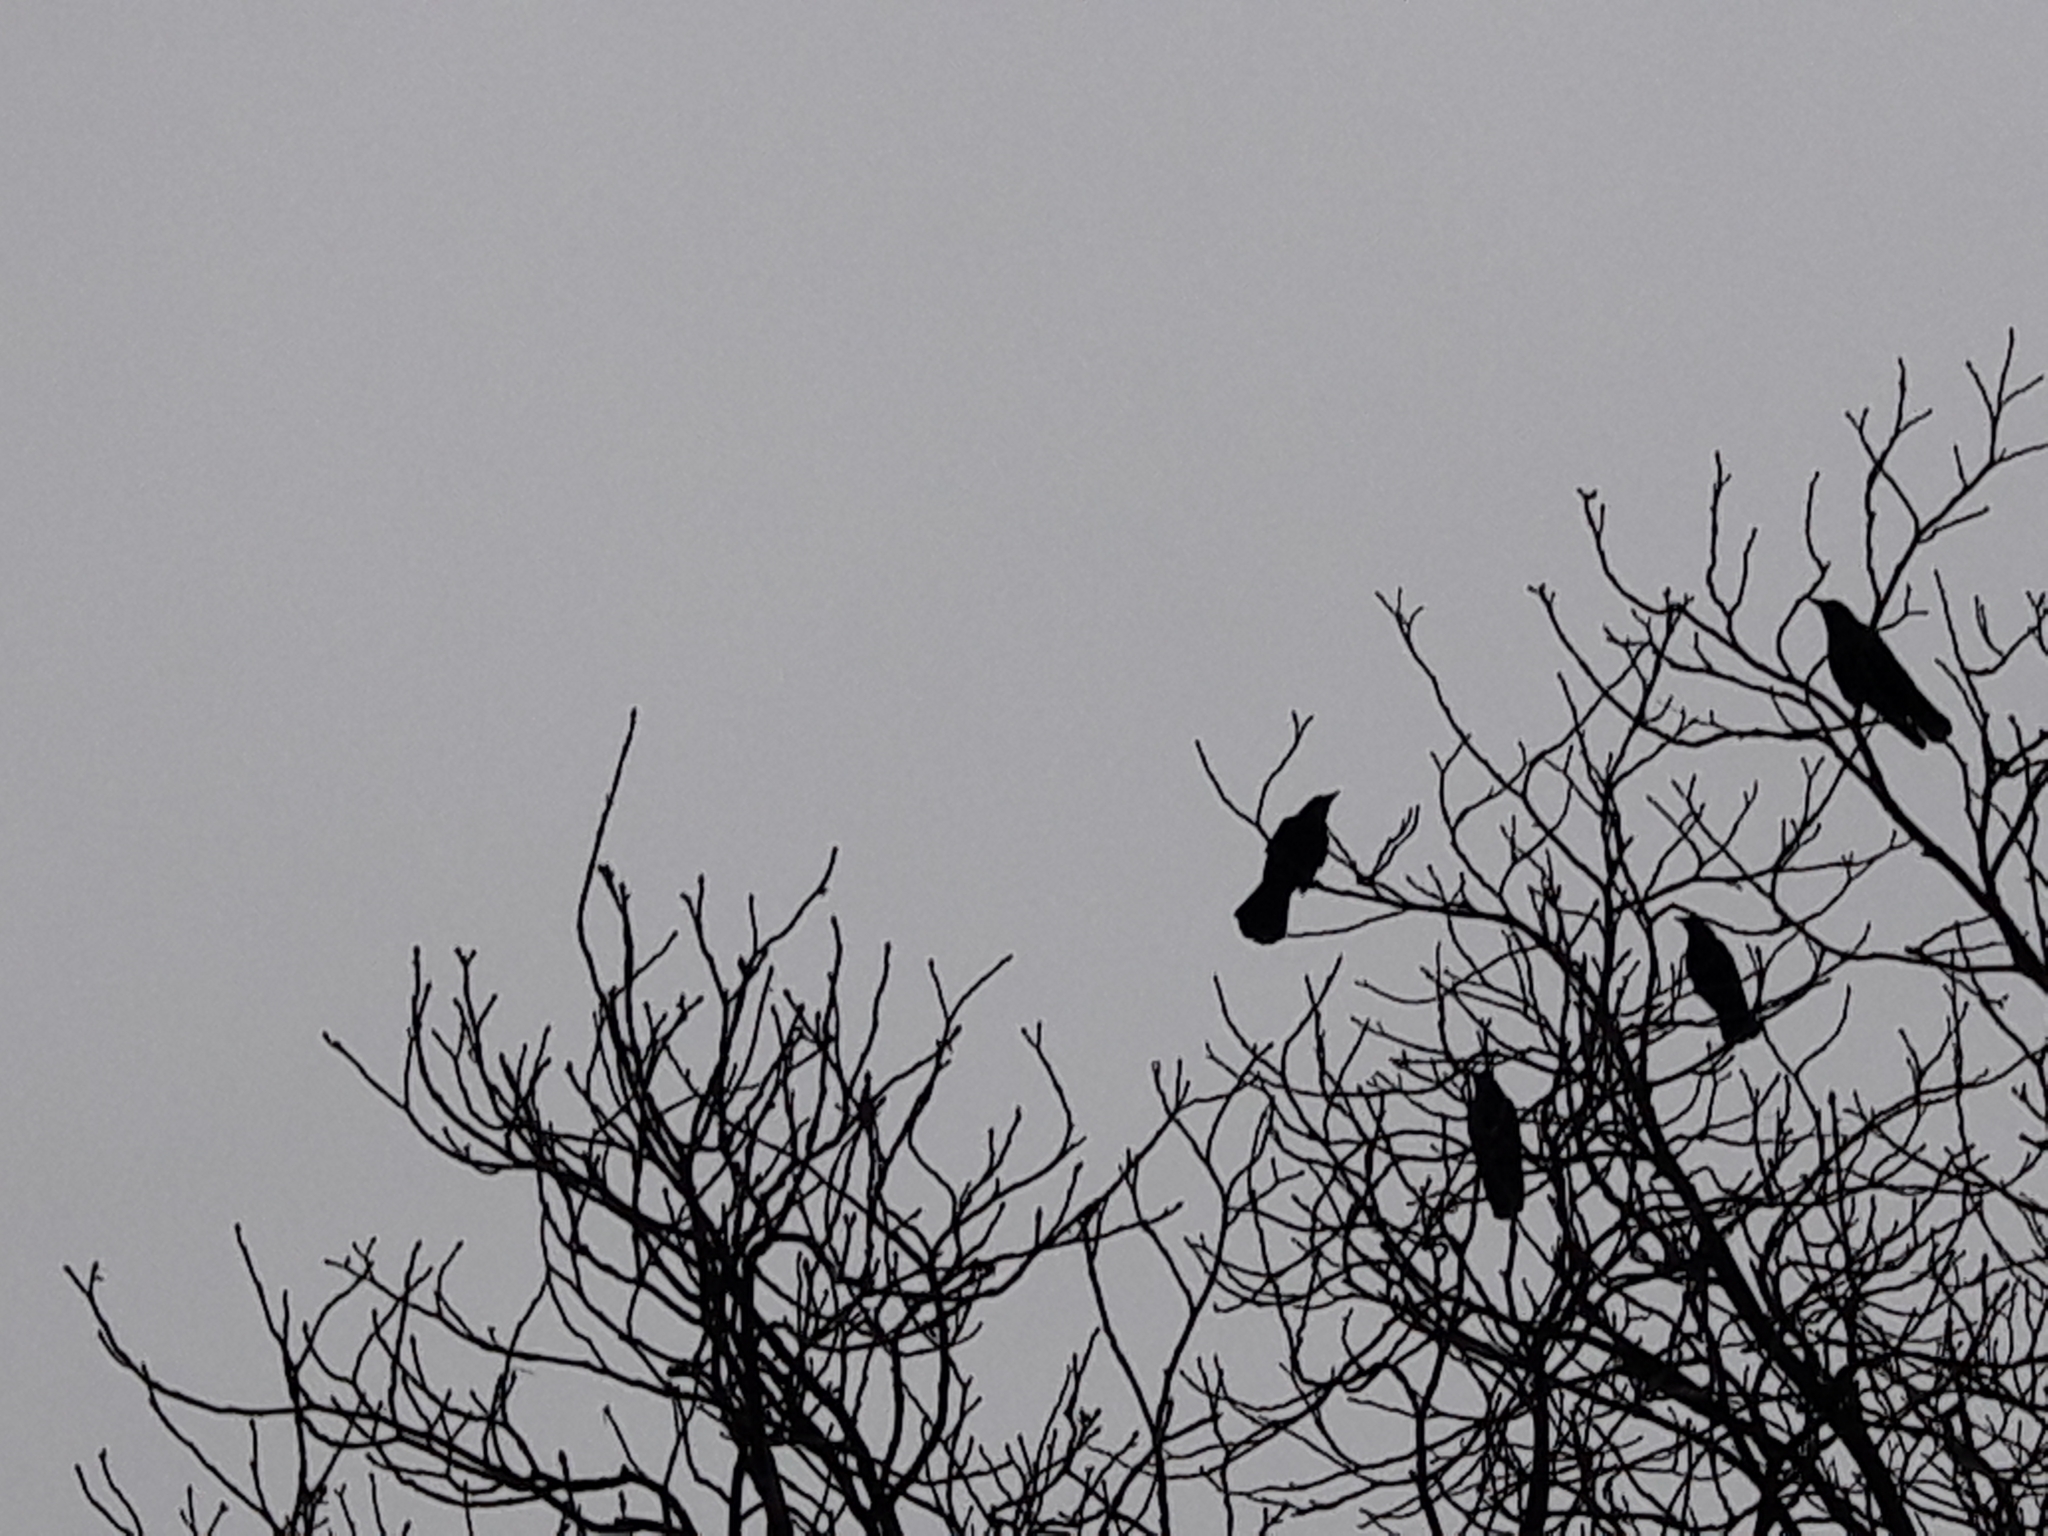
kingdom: Animalia
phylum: Chordata
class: Aves
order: Passeriformes
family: Corvidae
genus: Corvus
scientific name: Corvus corone
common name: Carrion crow
